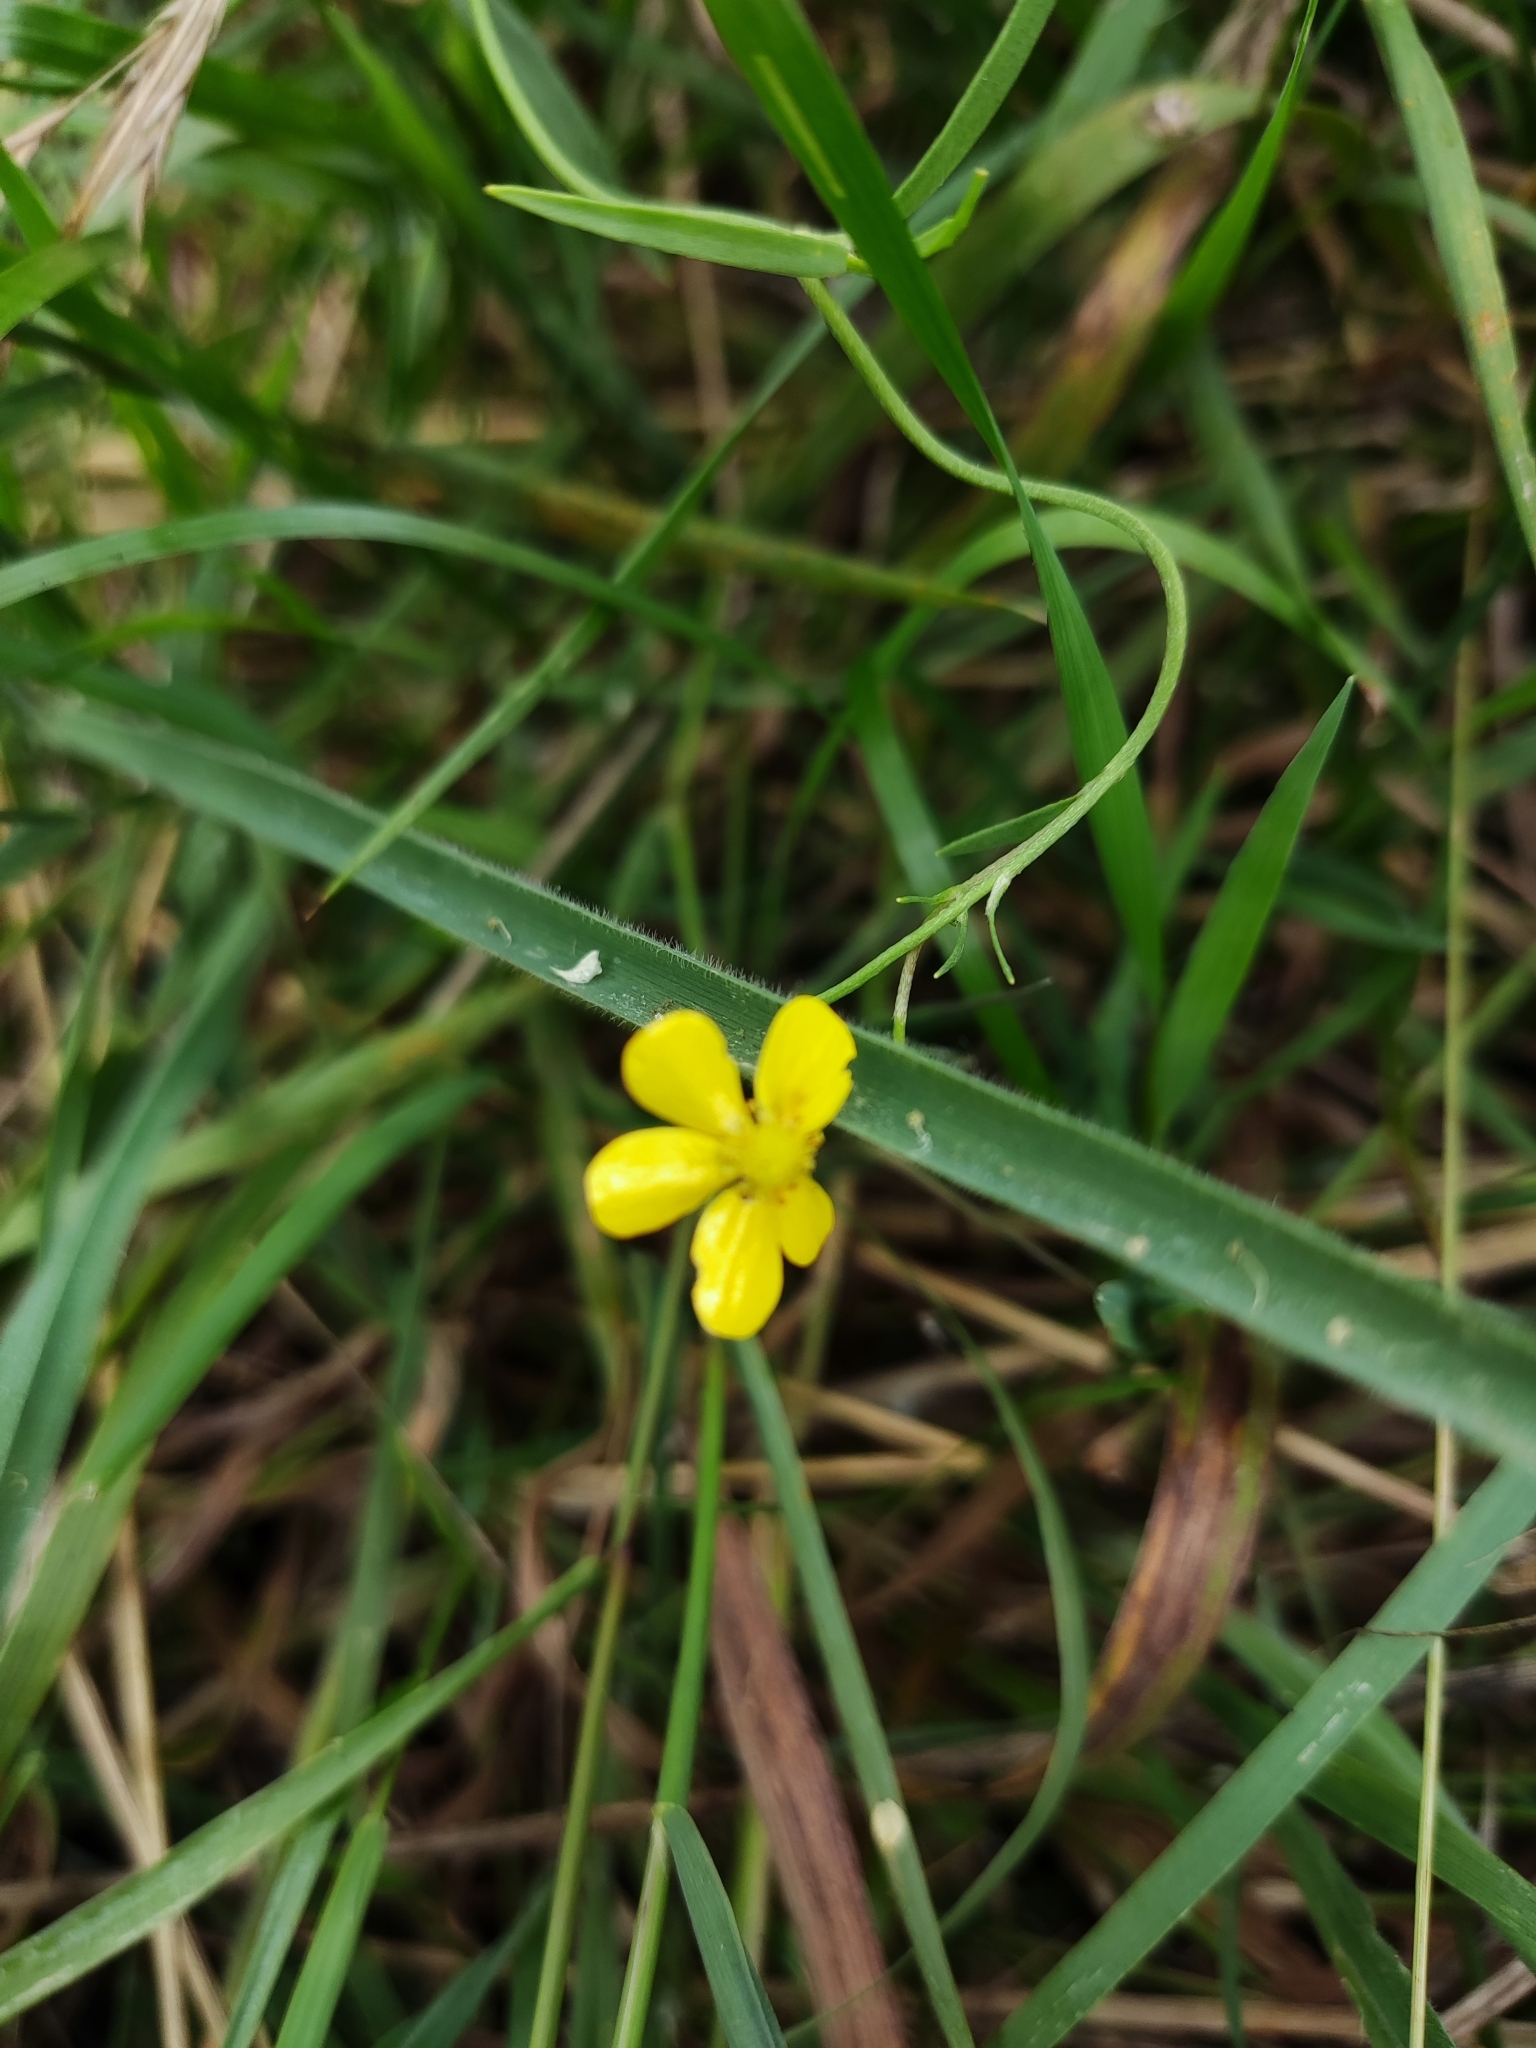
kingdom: Plantae
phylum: Tracheophyta
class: Magnoliopsida
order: Ranunculales
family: Ranunculaceae
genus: Ranunculus
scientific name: Ranunculus flammula
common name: Lesser spearwort
